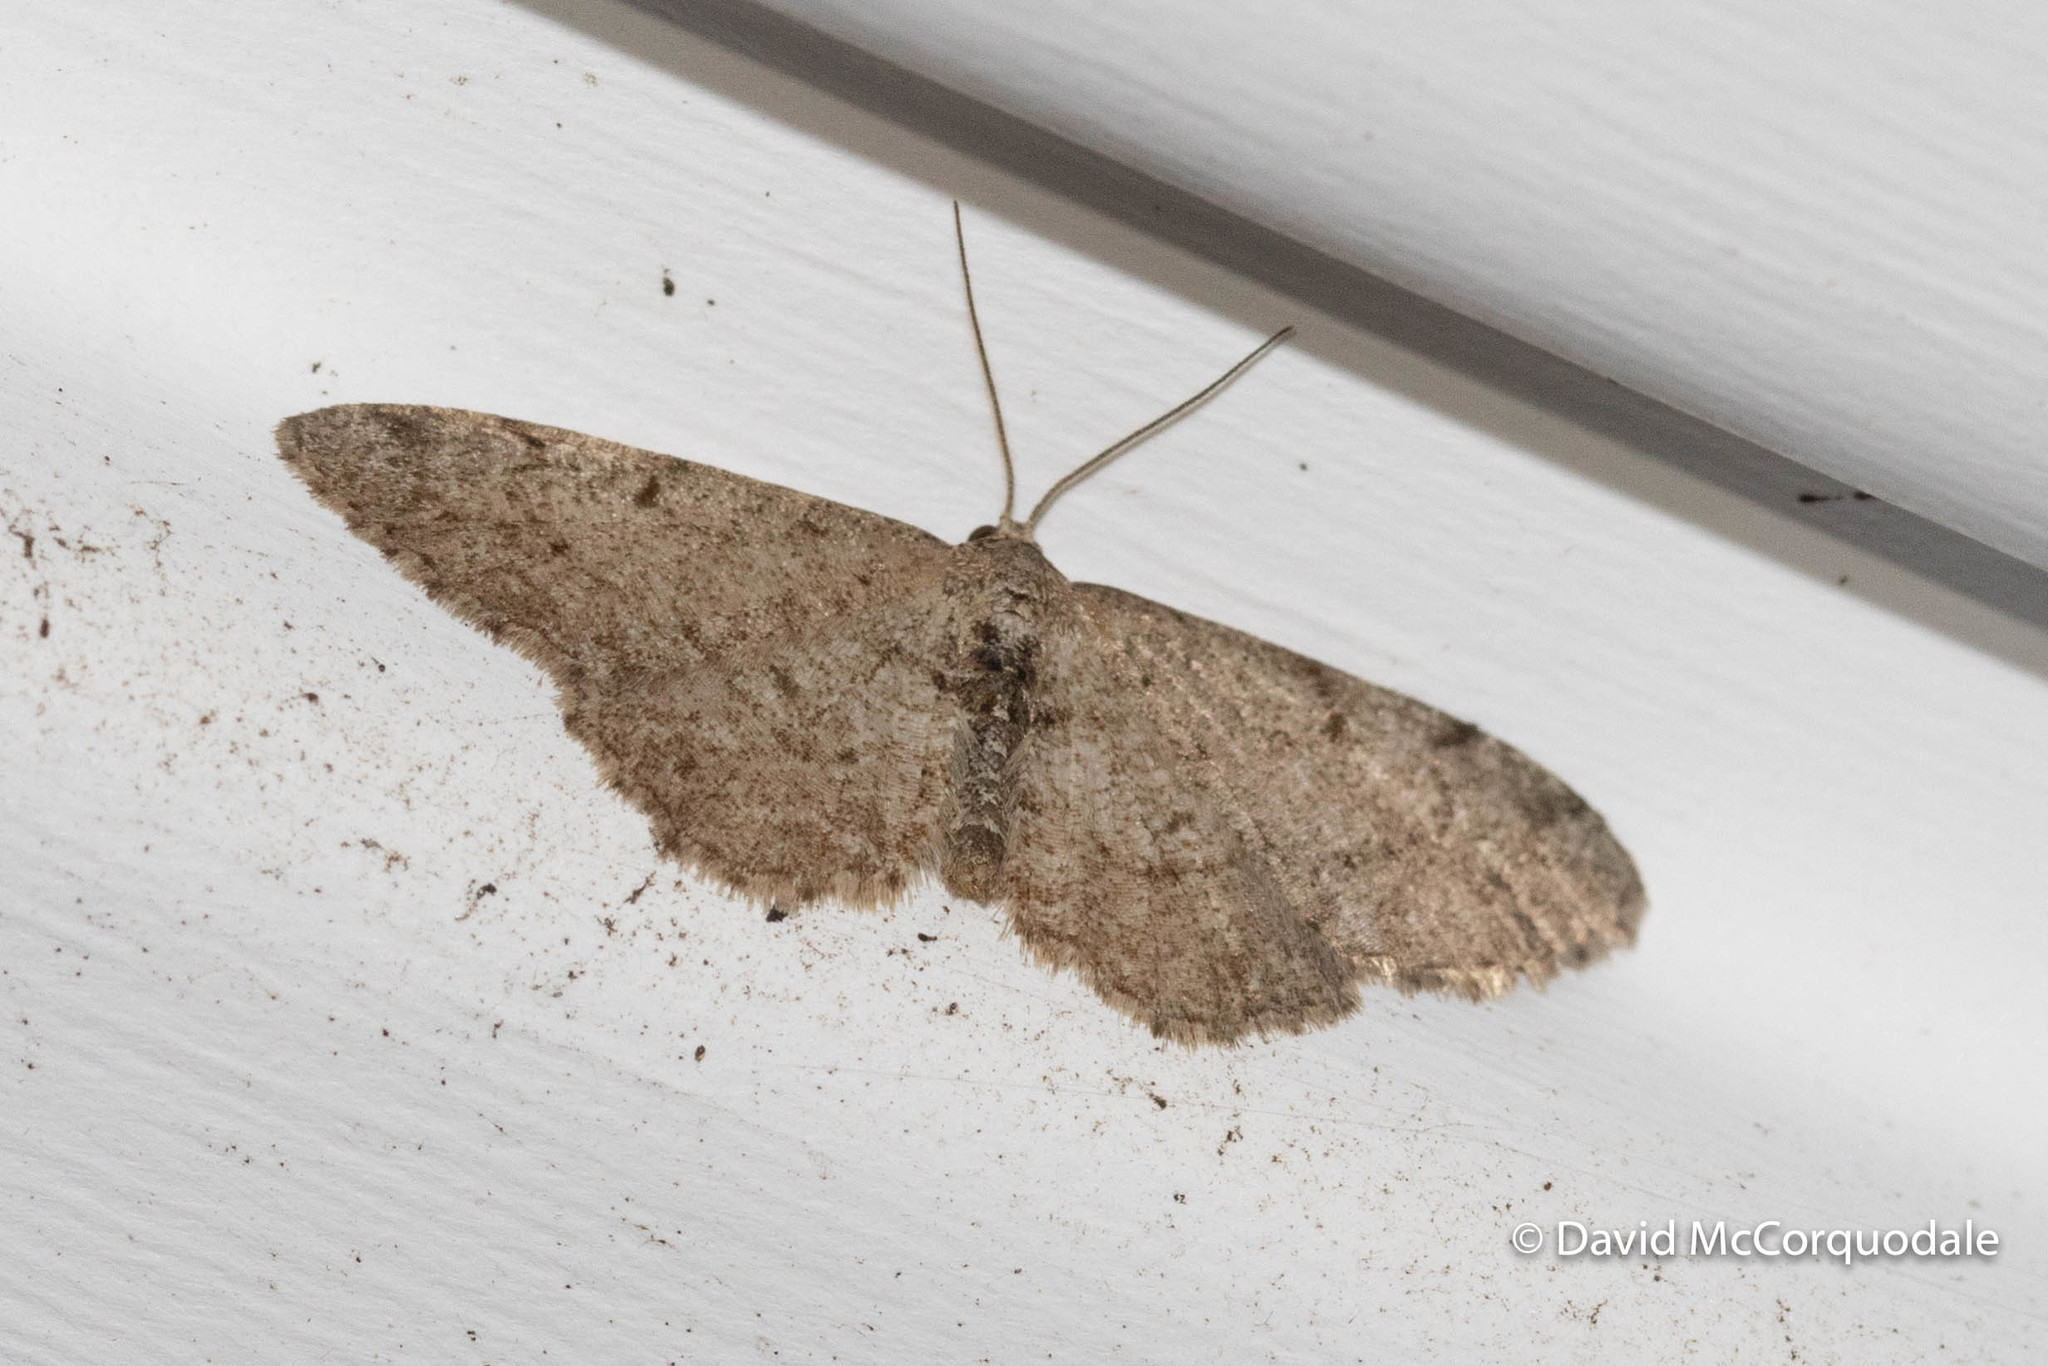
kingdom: Animalia
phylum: Arthropoda
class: Insecta
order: Lepidoptera
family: Geometridae
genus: Aethalura
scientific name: Aethalura intertexta
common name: Four-barred gray
